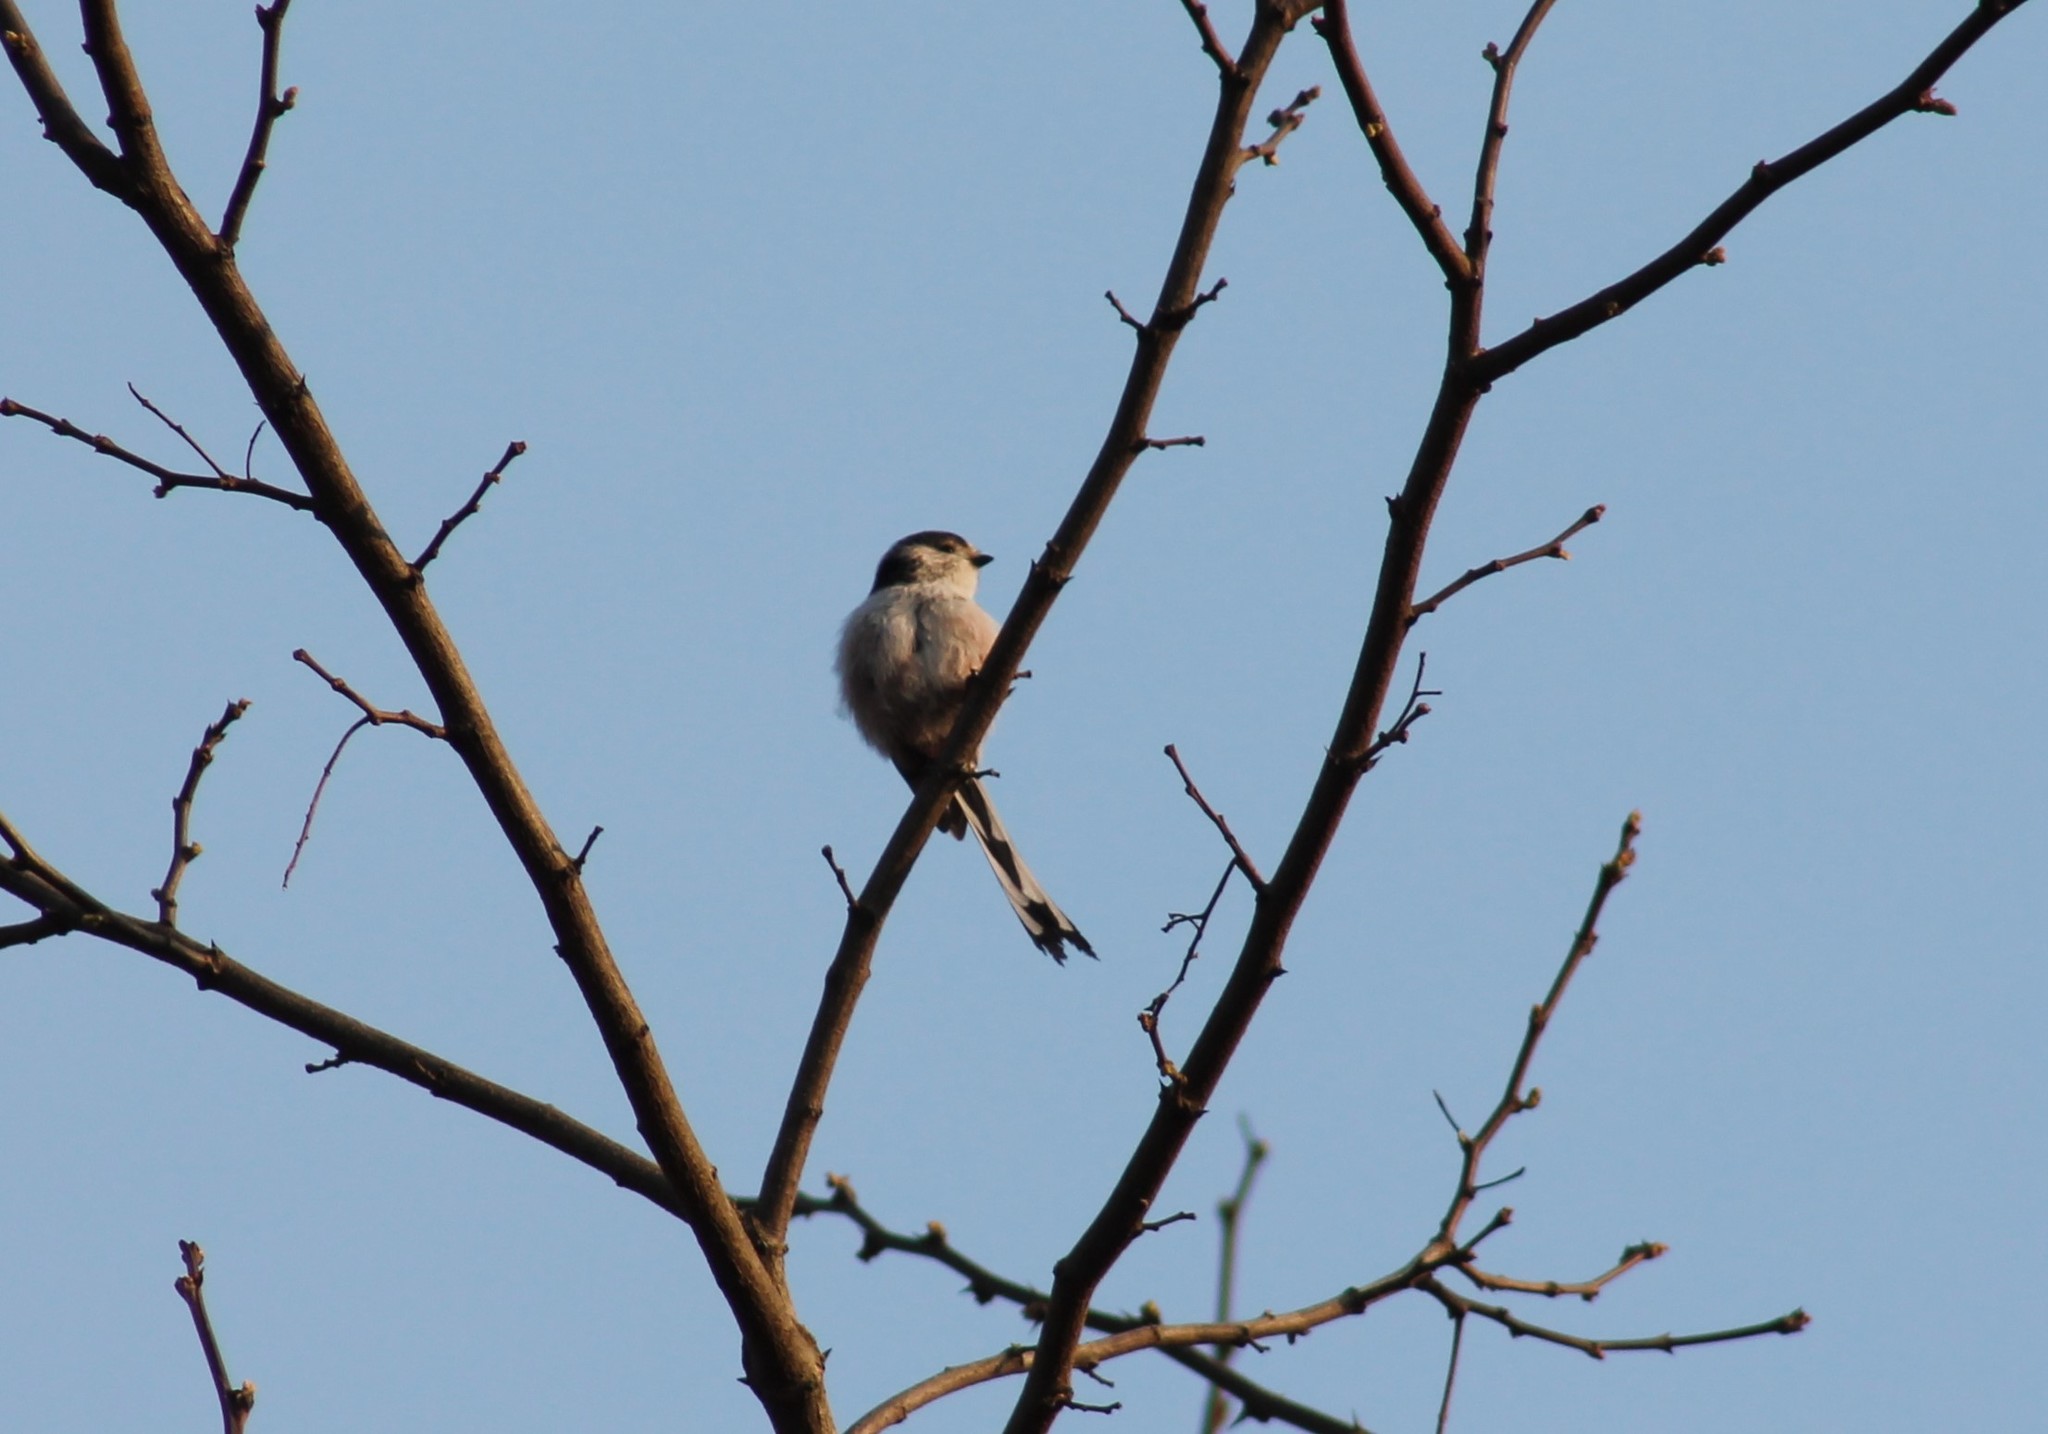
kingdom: Animalia
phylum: Chordata
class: Aves
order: Passeriformes
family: Aegithalidae
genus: Aegithalos
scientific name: Aegithalos caudatus
